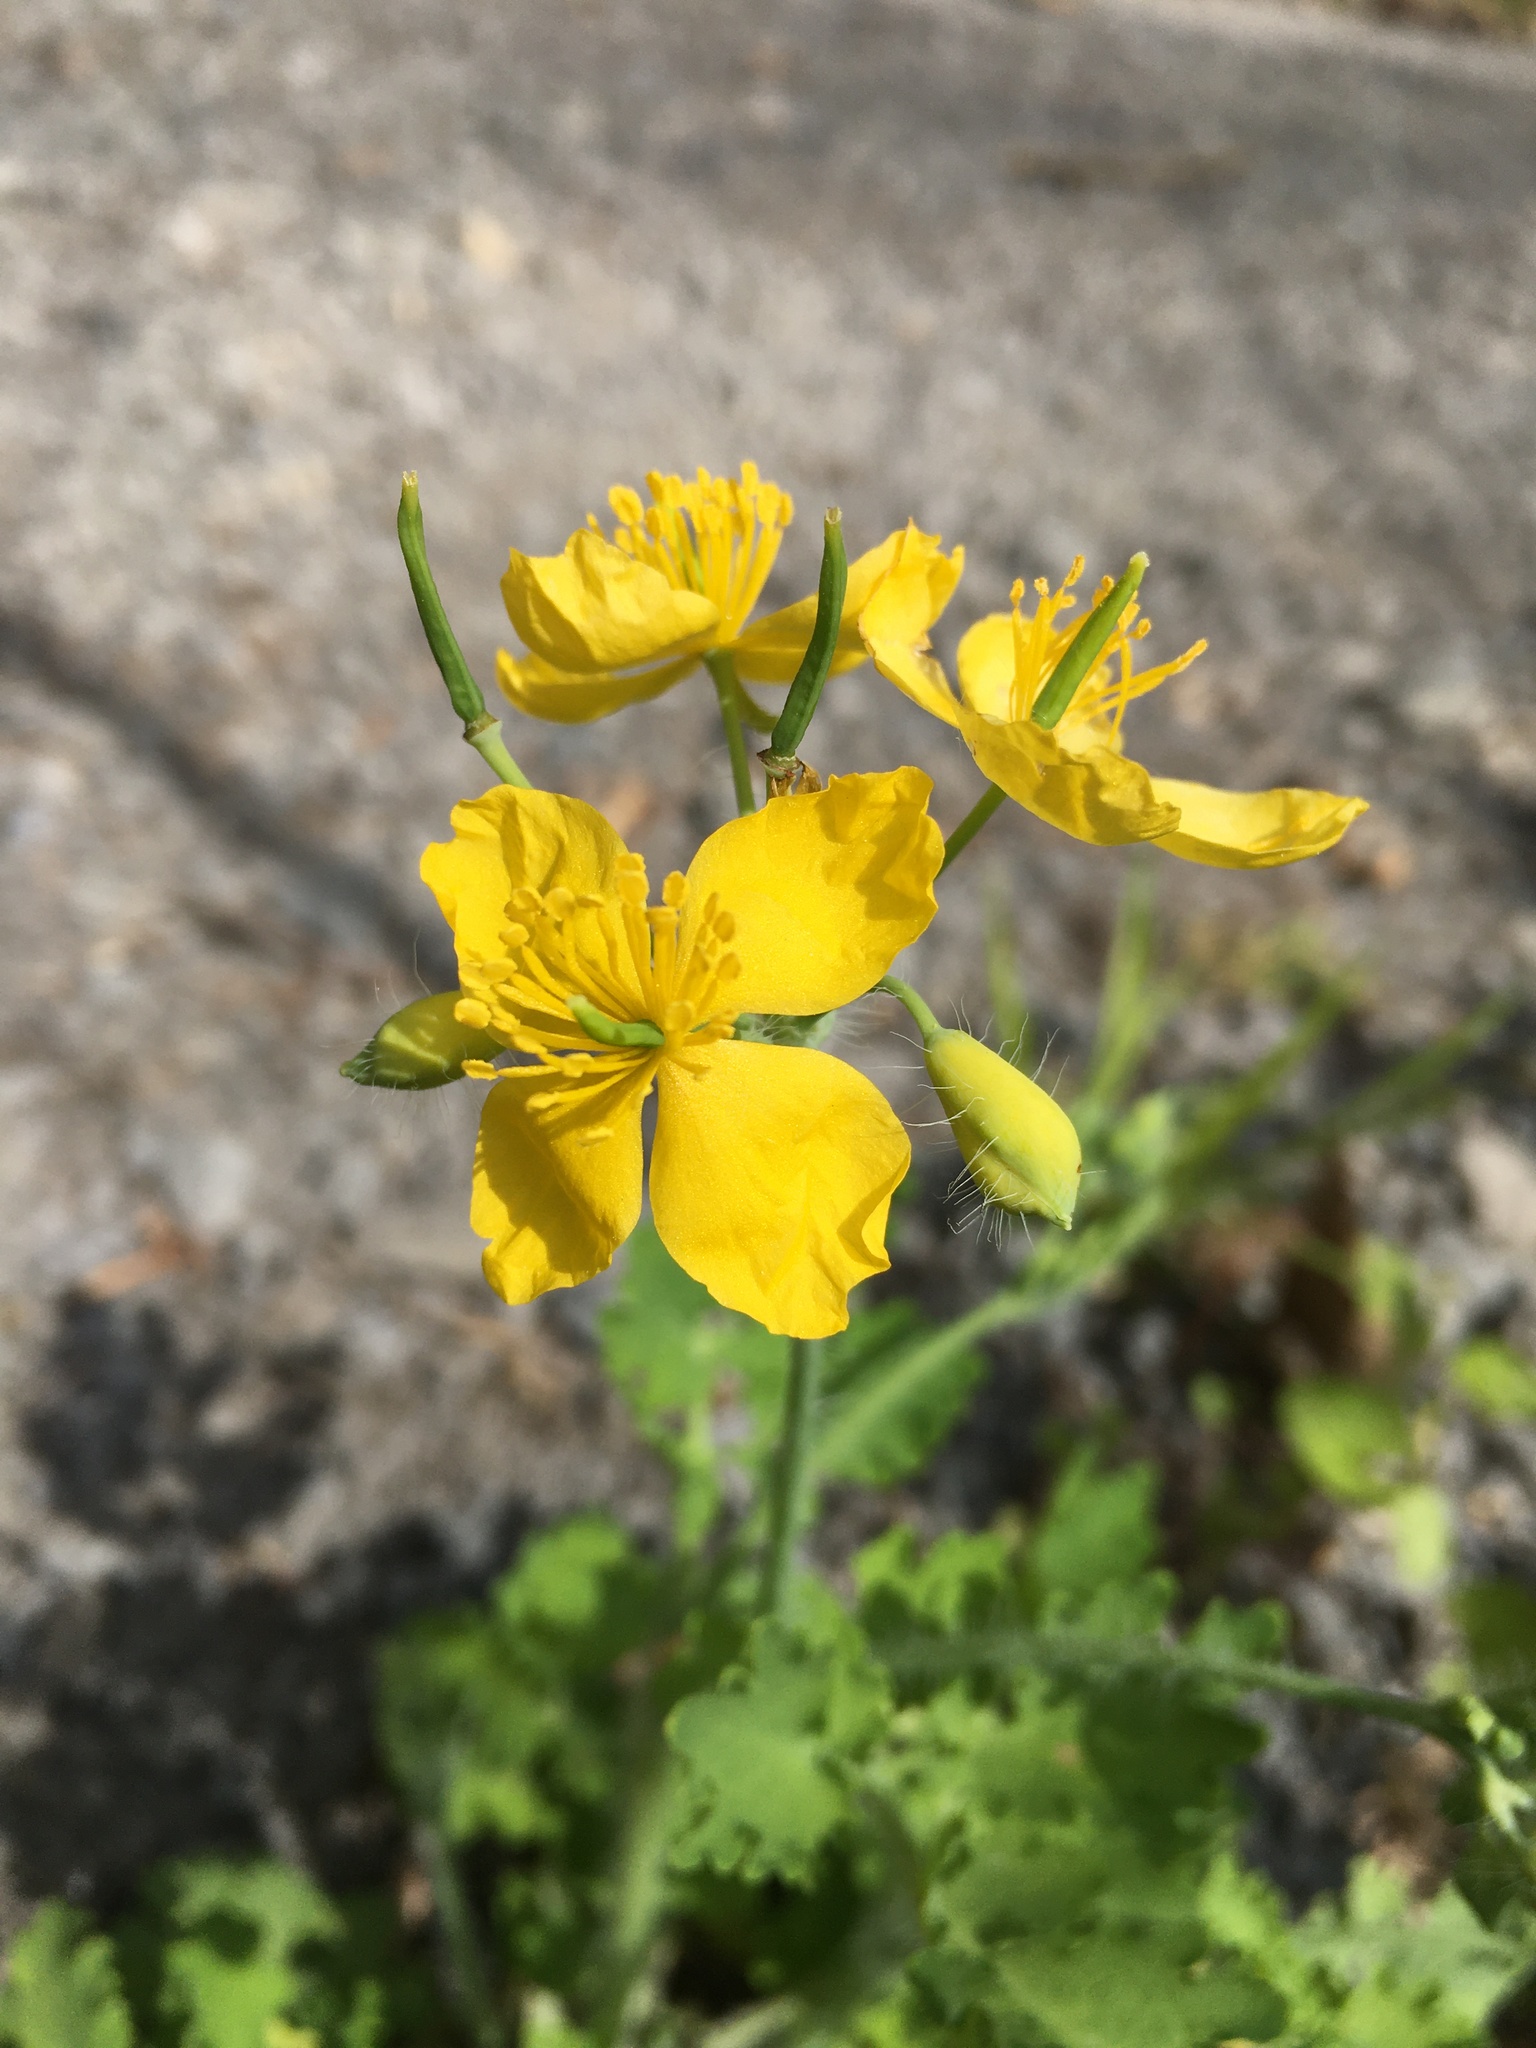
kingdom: Plantae
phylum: Tracheophyta
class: Magnoliopsida
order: Ranunculales
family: Papaveraceae
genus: Chelidonium
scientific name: Chelidonium majus
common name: Greater celandine
